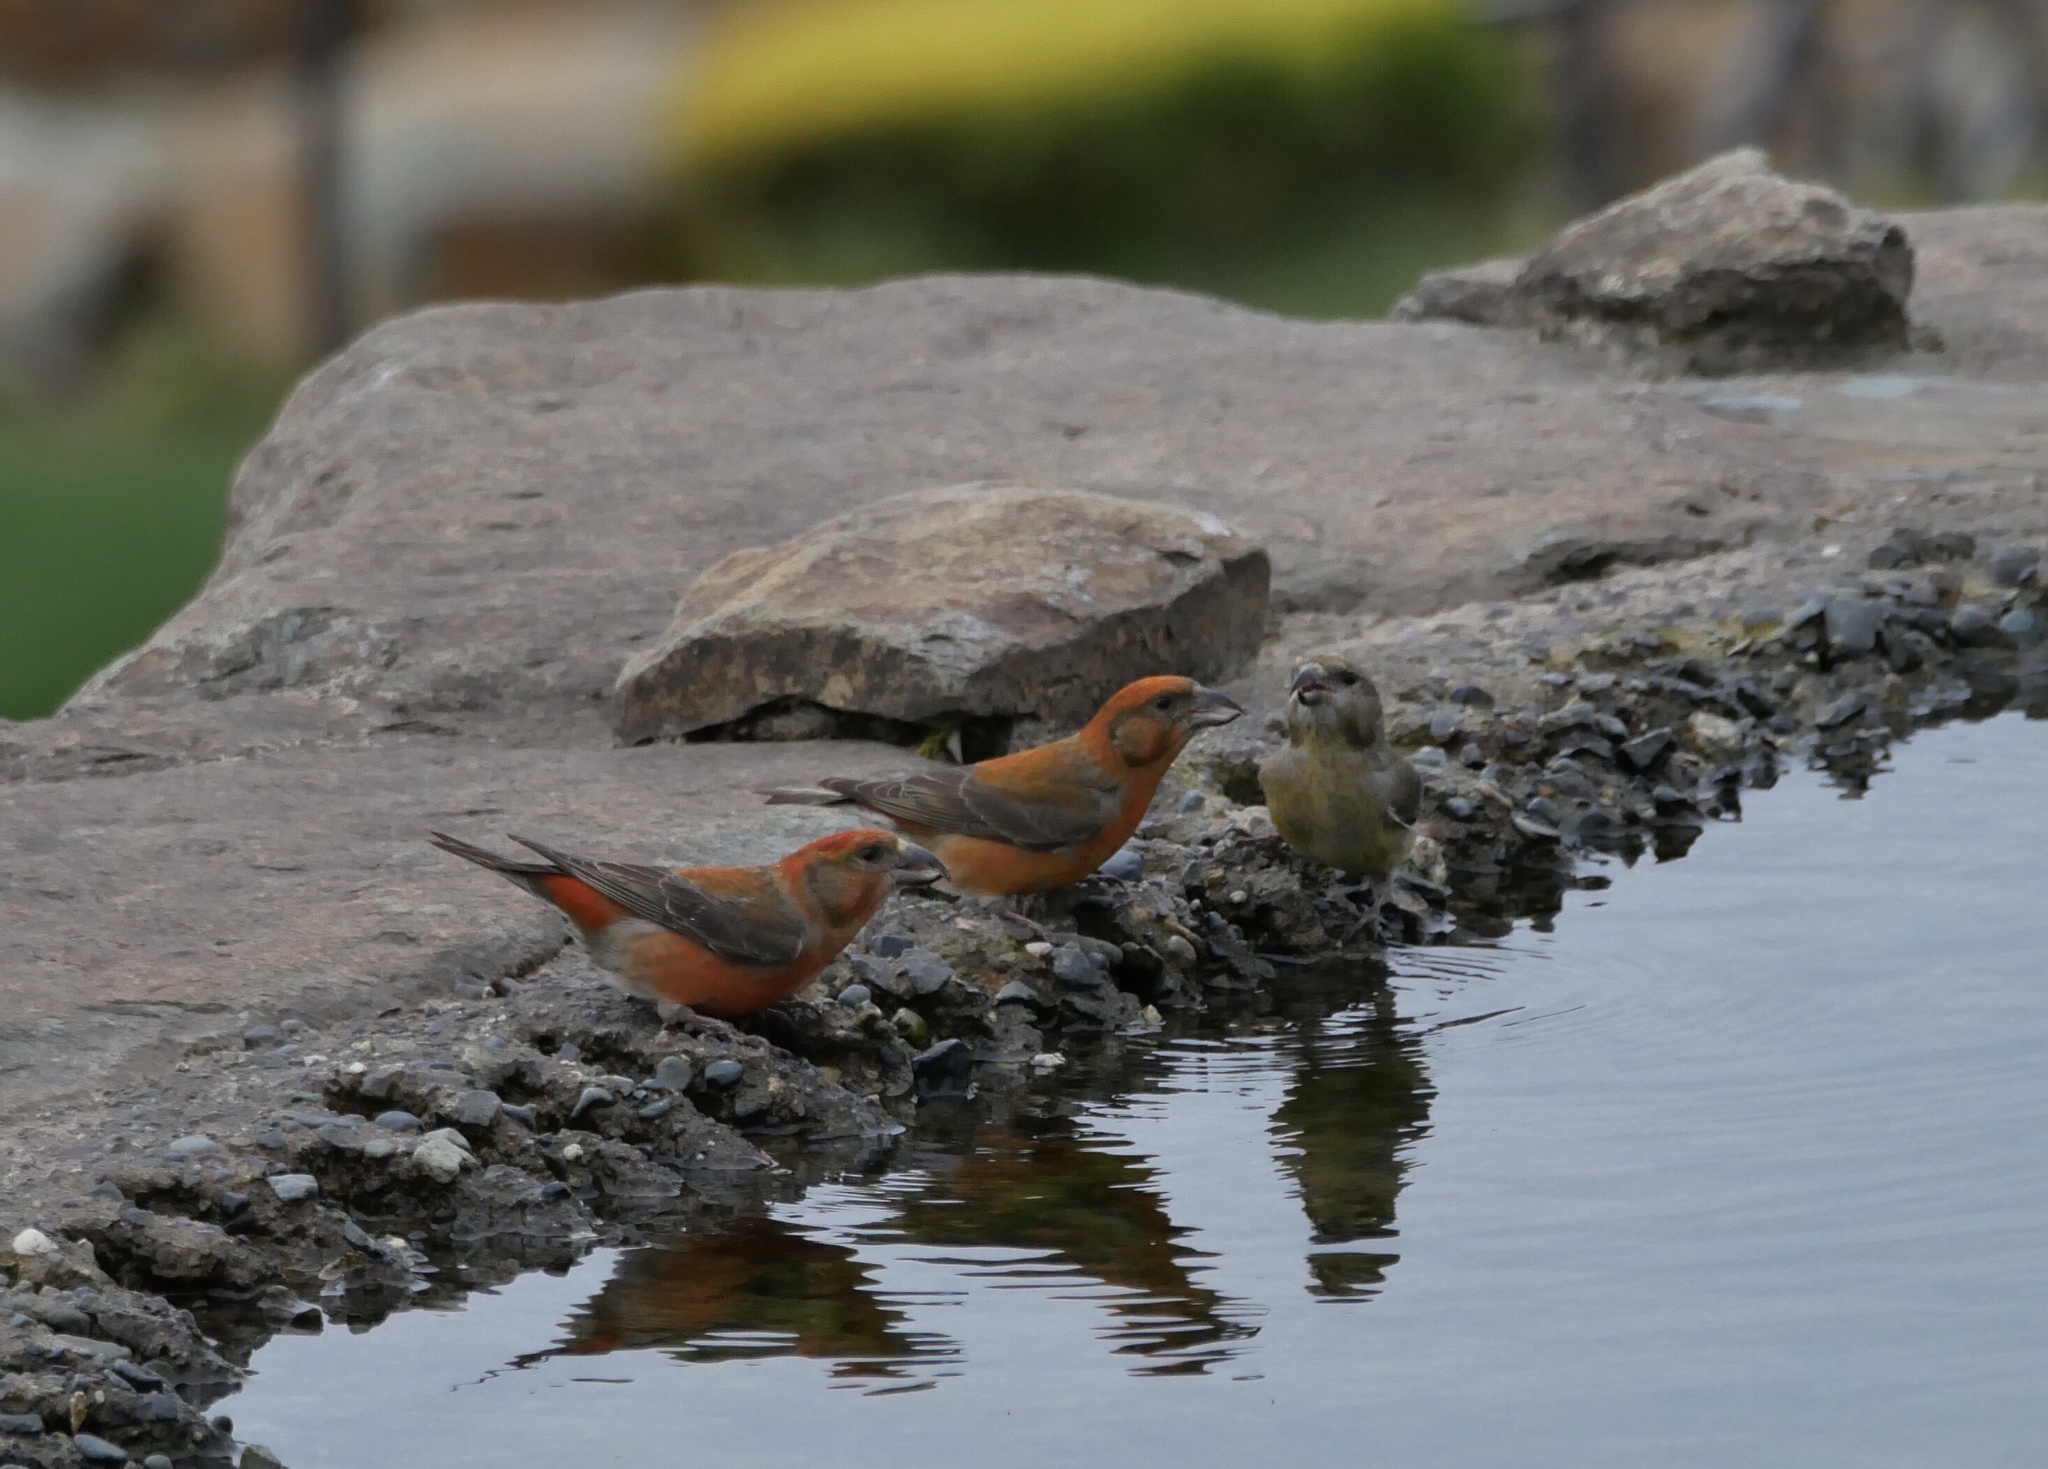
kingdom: Animalia
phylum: Chordata
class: Aves
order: Passeriformes
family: Fringillidae
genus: Loxia
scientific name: Loxia curvirostra
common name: Red crossbill
